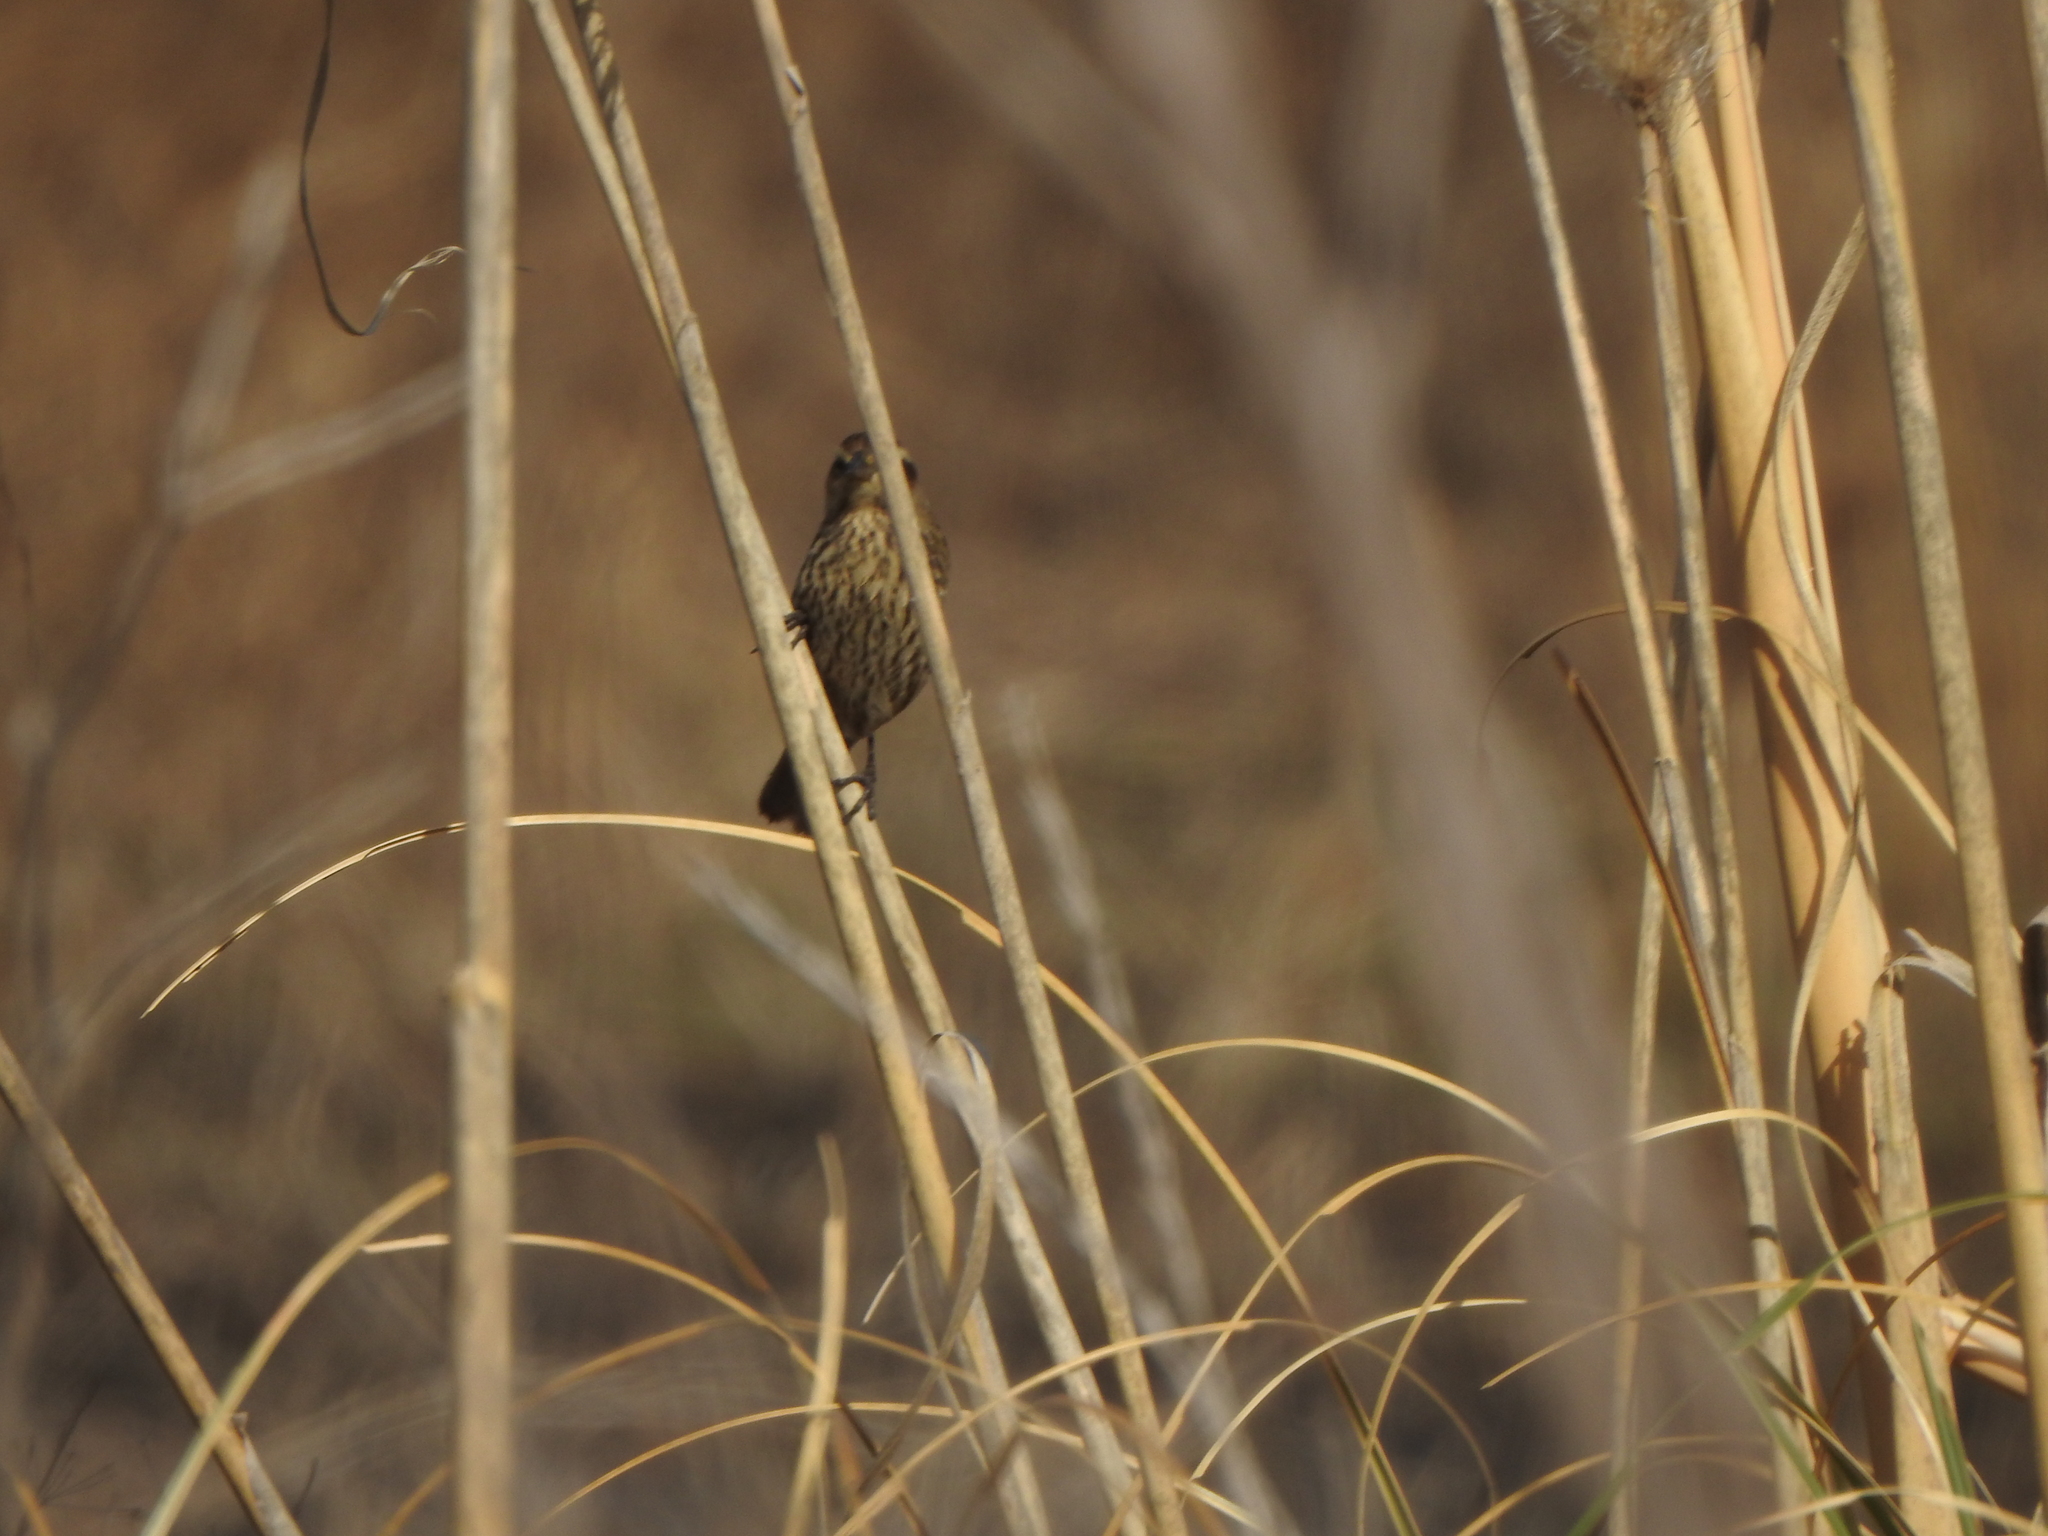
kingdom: Animalia
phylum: Chordata
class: Aves
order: Passeriformes
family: Icteridae
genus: Agelasticus
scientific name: Agelasticus thilius
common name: Yellow-winged blackbird
